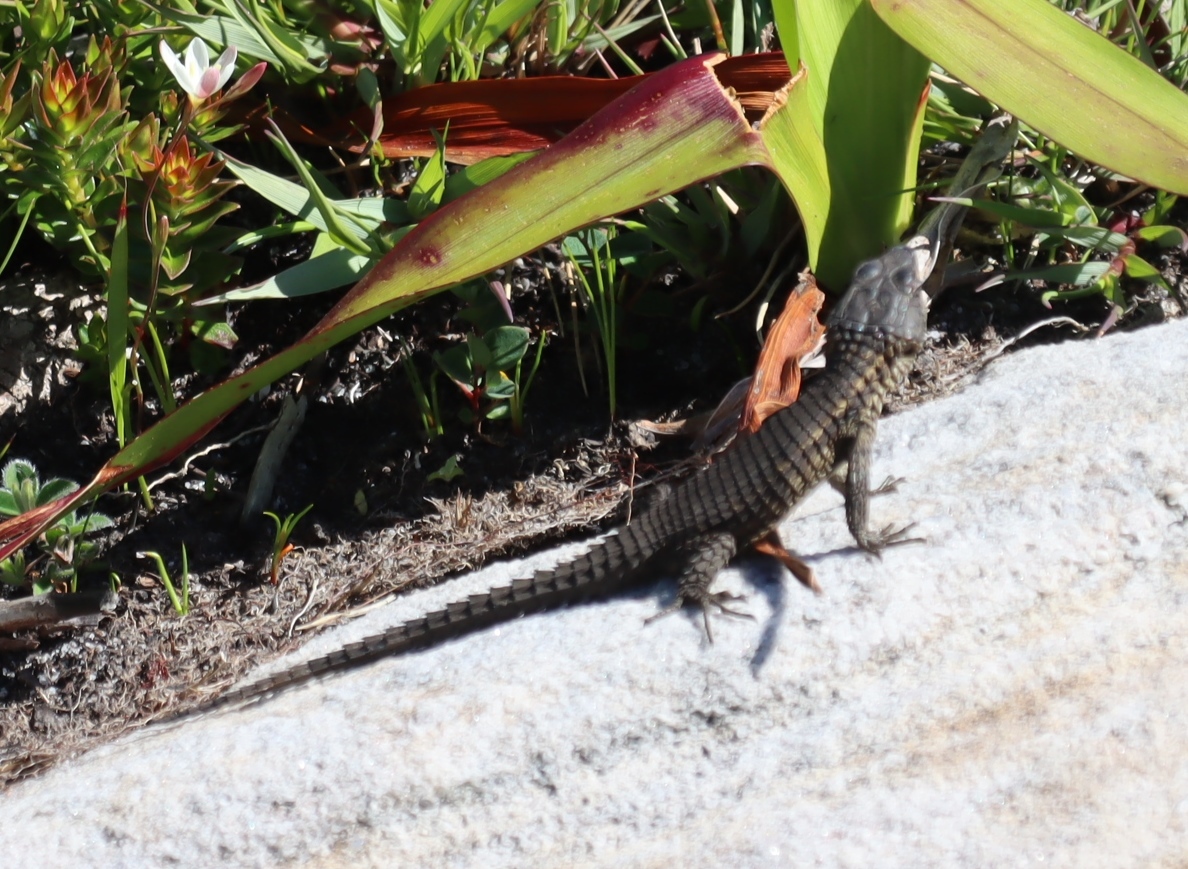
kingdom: Animalia
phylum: Chordata
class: Squamata
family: Cordylidae
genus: Cordylus
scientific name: Cordylus niger
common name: Black girdled lizard
